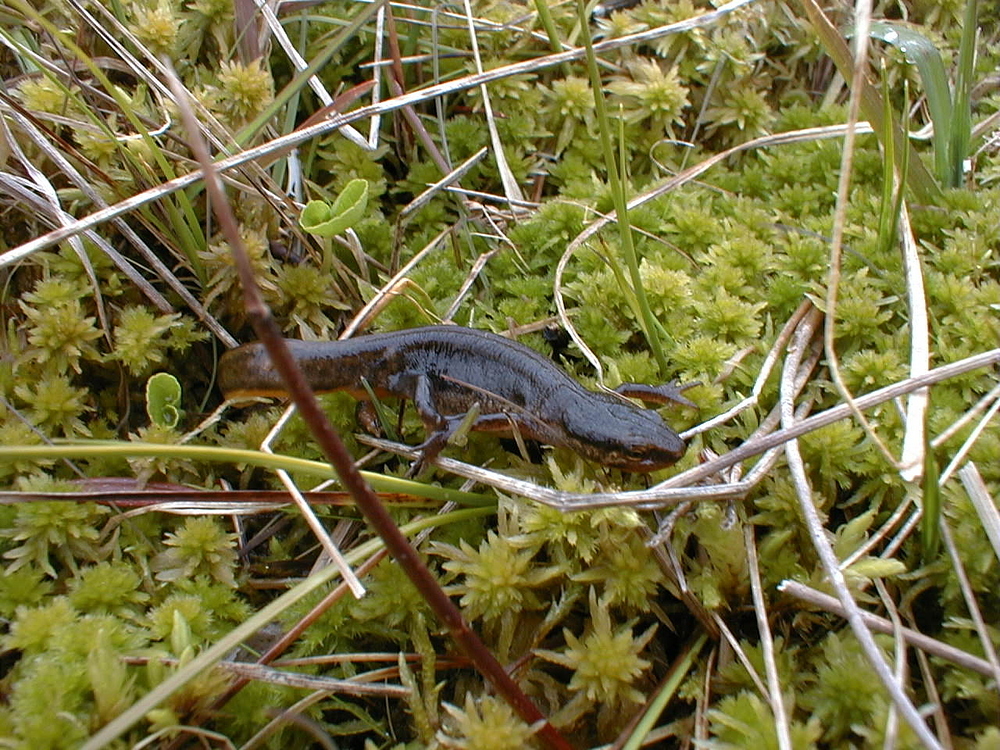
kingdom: Animalia
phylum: Chordata
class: Amphibia
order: Caudata
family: Salamandridae
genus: Lissotriton
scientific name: Lissotriton helveticus
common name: Palmate newt
